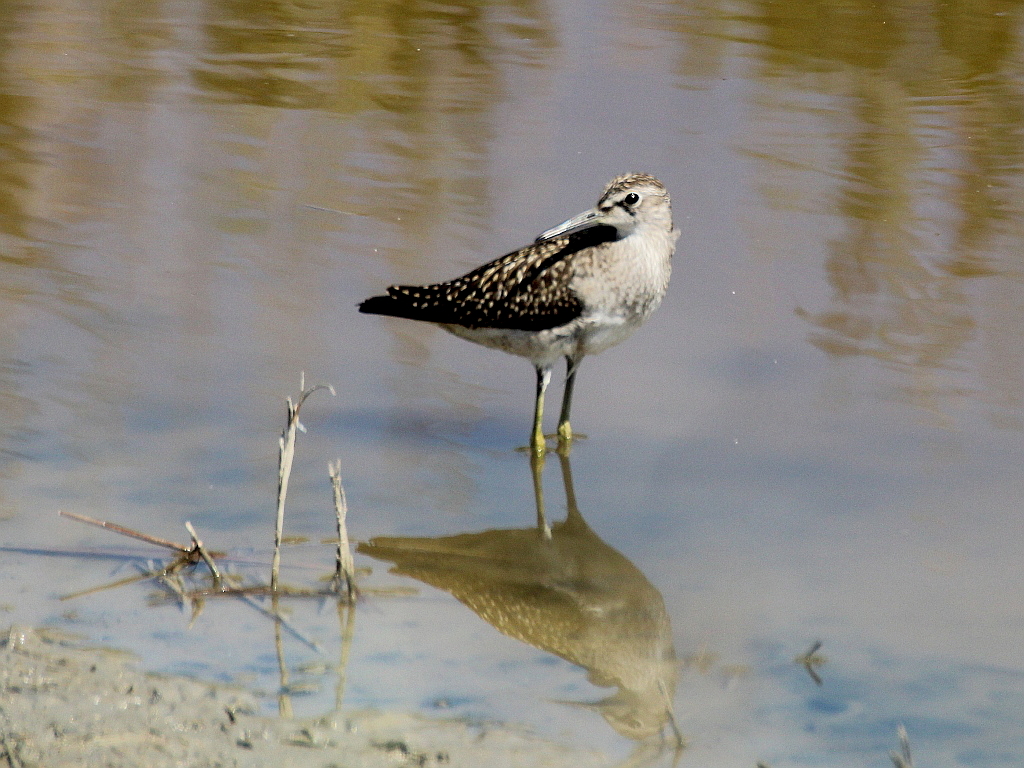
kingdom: Animalia
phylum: Chordata
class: Aves
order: Charadriiformes
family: Scolopacidae
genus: Tringa
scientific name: Tringa glareola
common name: Wood sandpiper
